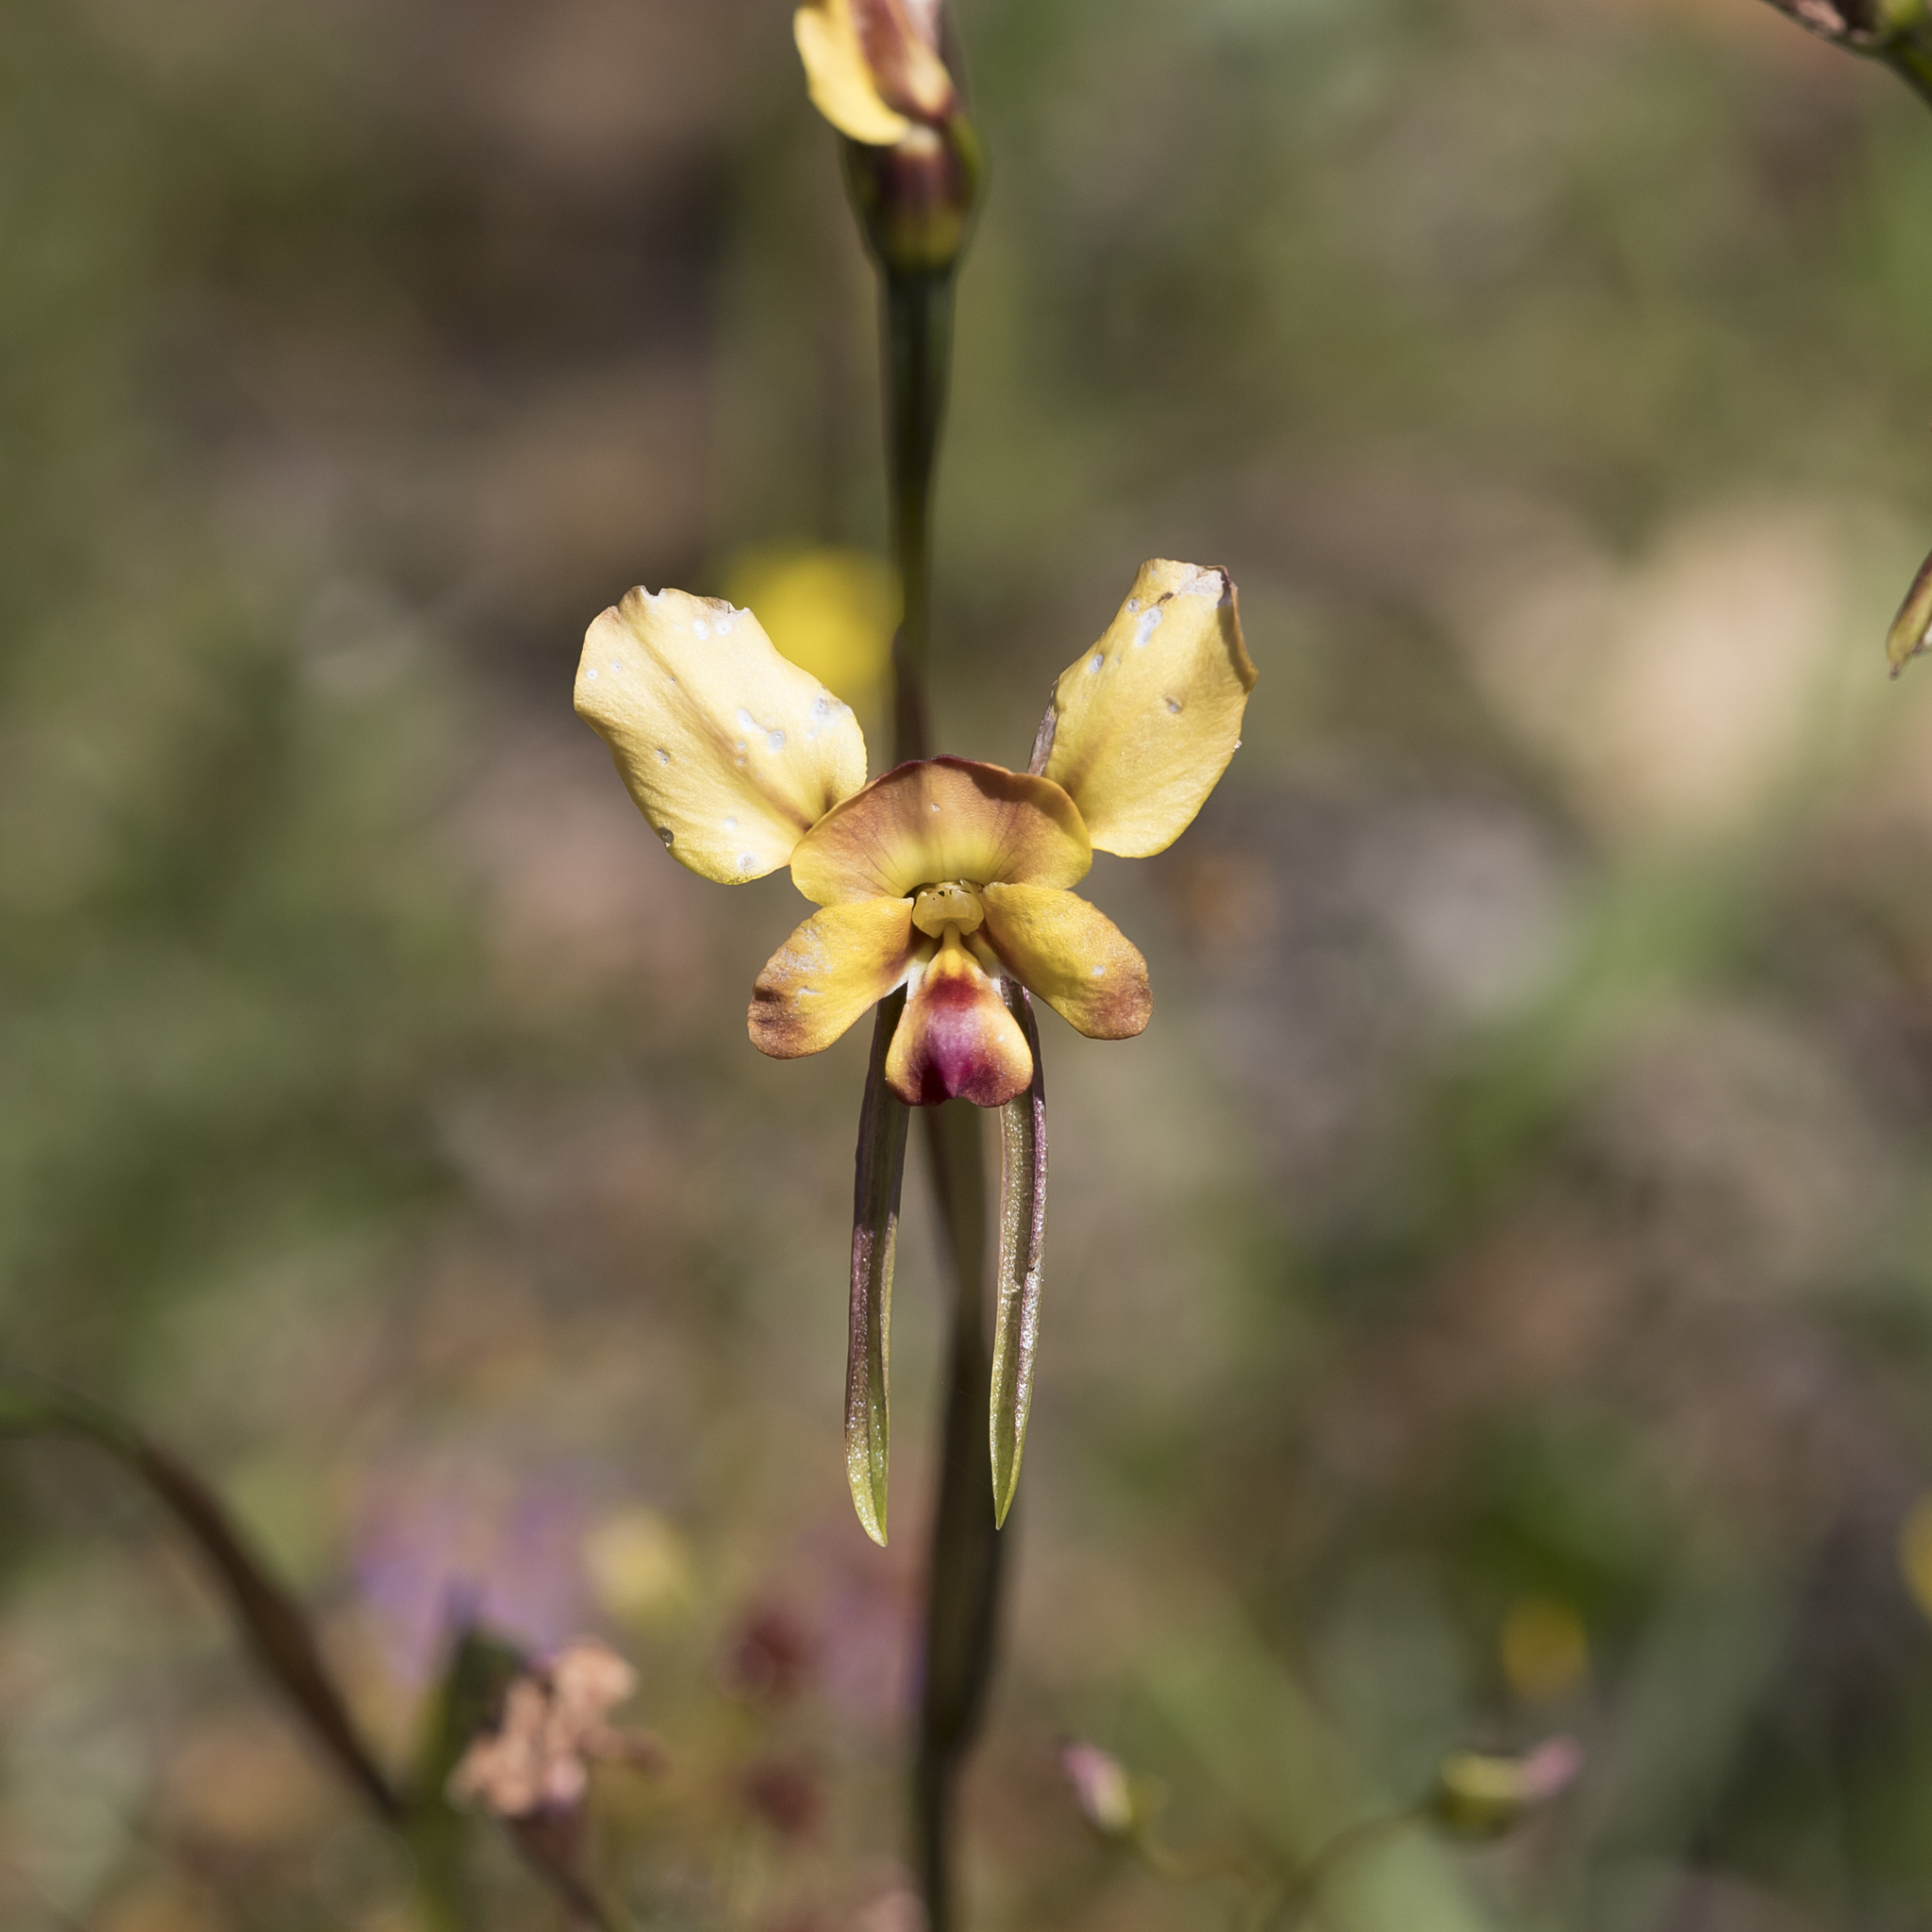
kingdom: Plantae
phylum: Tracheophyta
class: Liliopsida
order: Asparagales
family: Orchidaceae
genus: Diuris
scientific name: Diuris orientis
